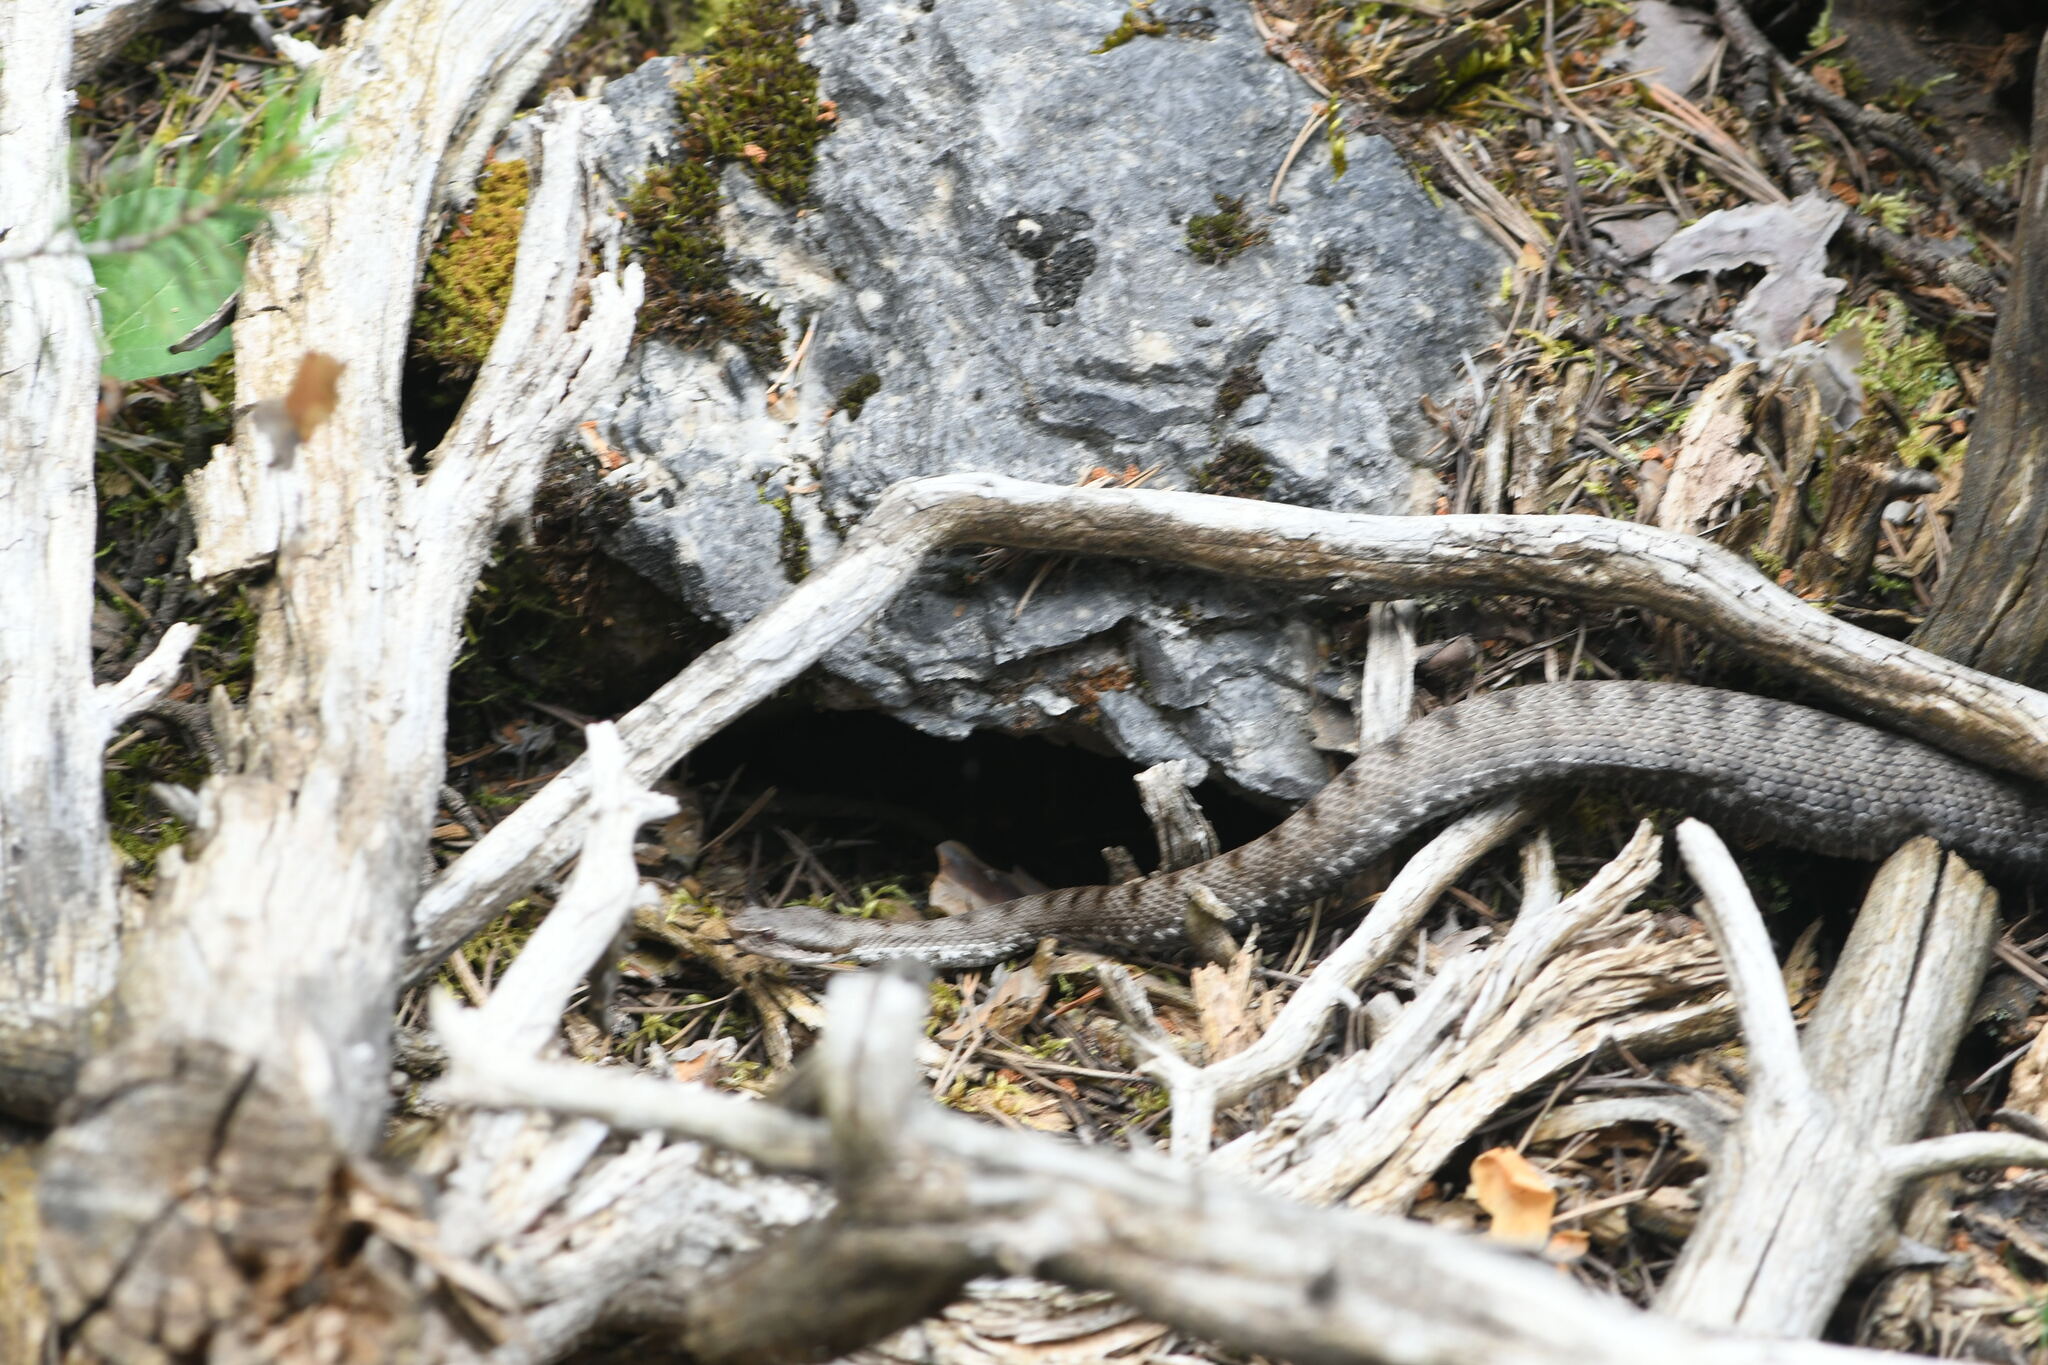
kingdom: Animalia
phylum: Chordata
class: Squamata
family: Viperidae
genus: Vipera
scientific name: Vipera aspis
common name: Asp viper
